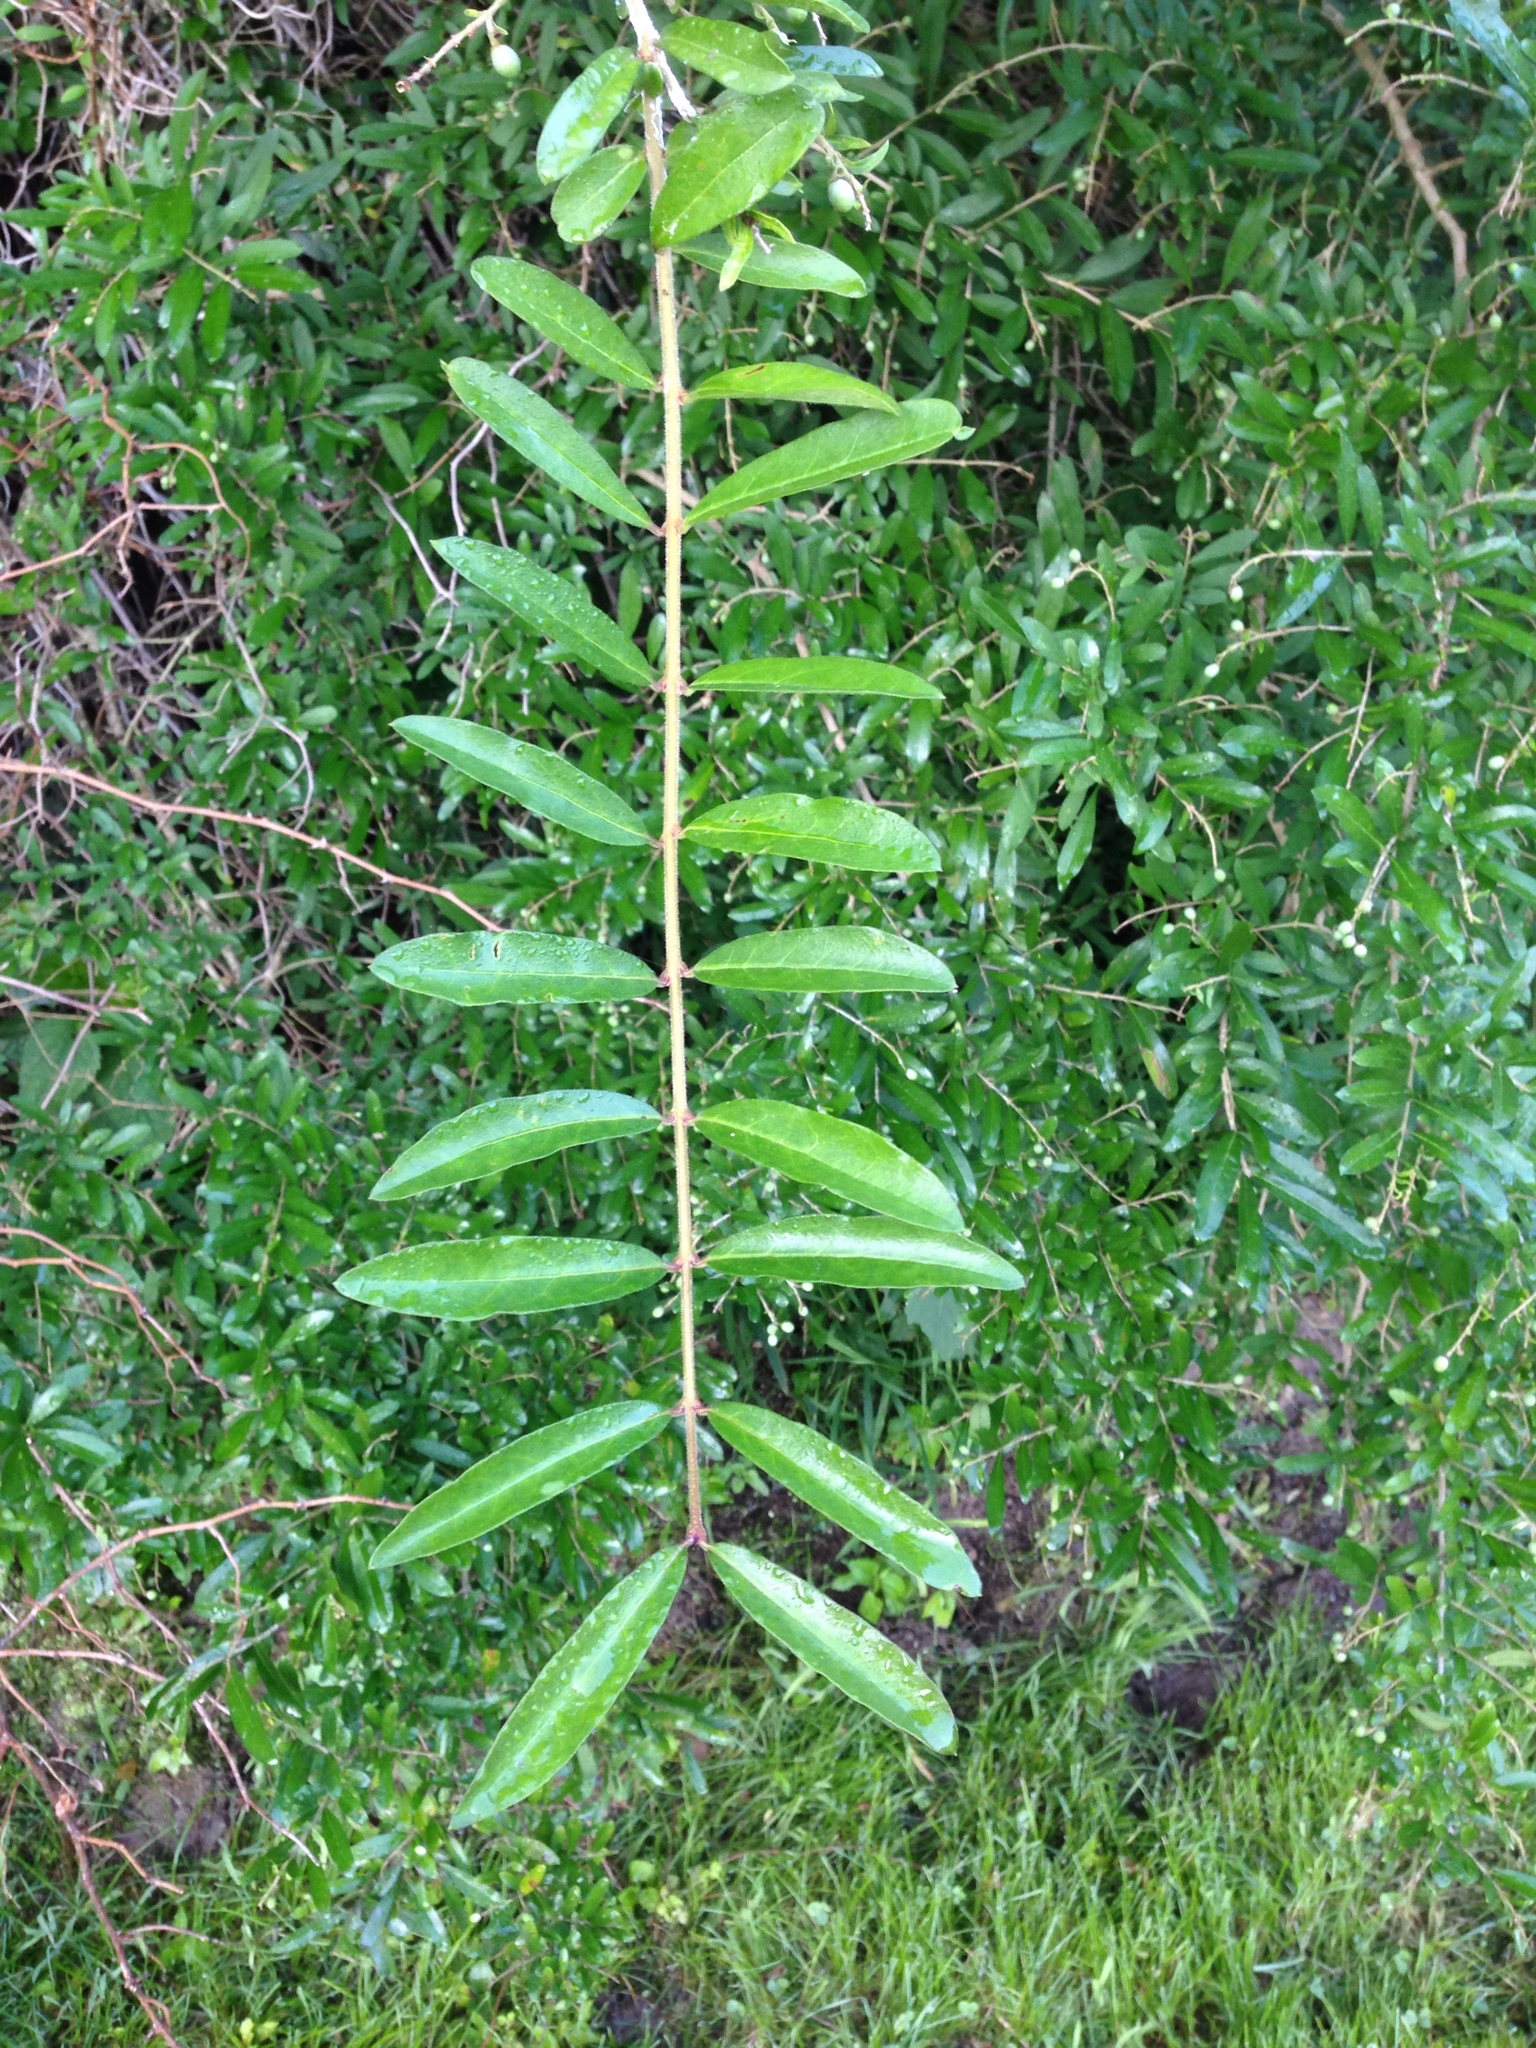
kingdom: Plantae
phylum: Tracheophyta
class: Magnoliopsida
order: Lamiales
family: Oleaceae
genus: Ligustrum
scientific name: Ligustrum obtusifolium
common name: Border privet
